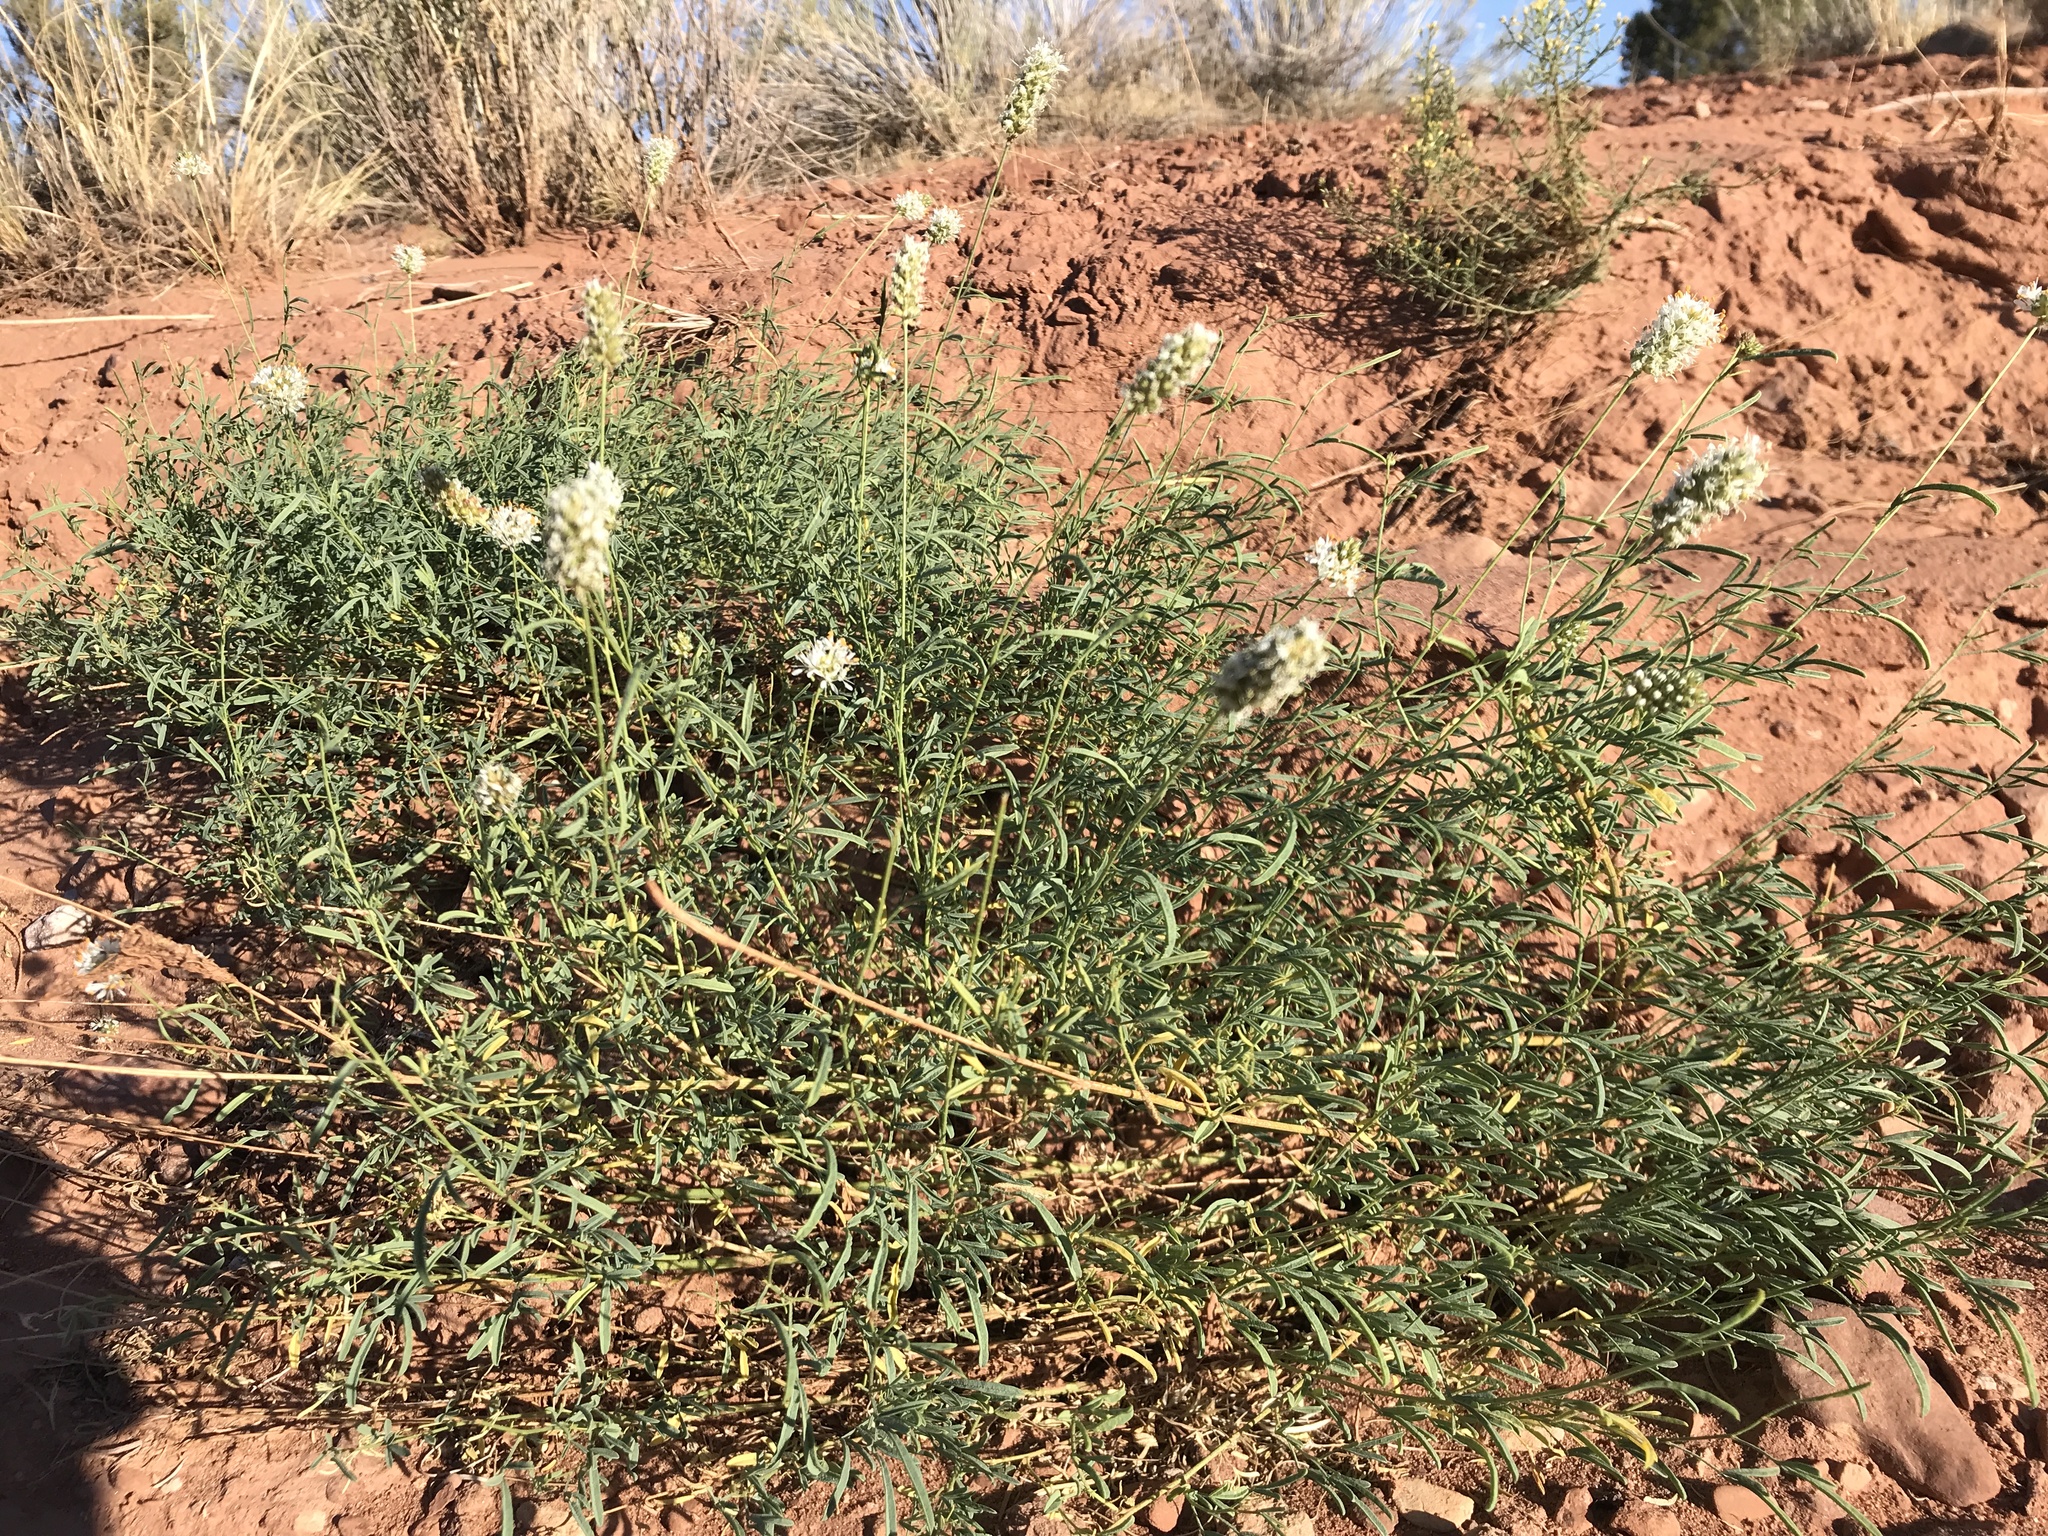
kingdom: Plantae
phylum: Tracheophyta
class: Magnoliopsida
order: Fabales
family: Fabaceae
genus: Dalea
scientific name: Dalea candida
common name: White prairie-clover
